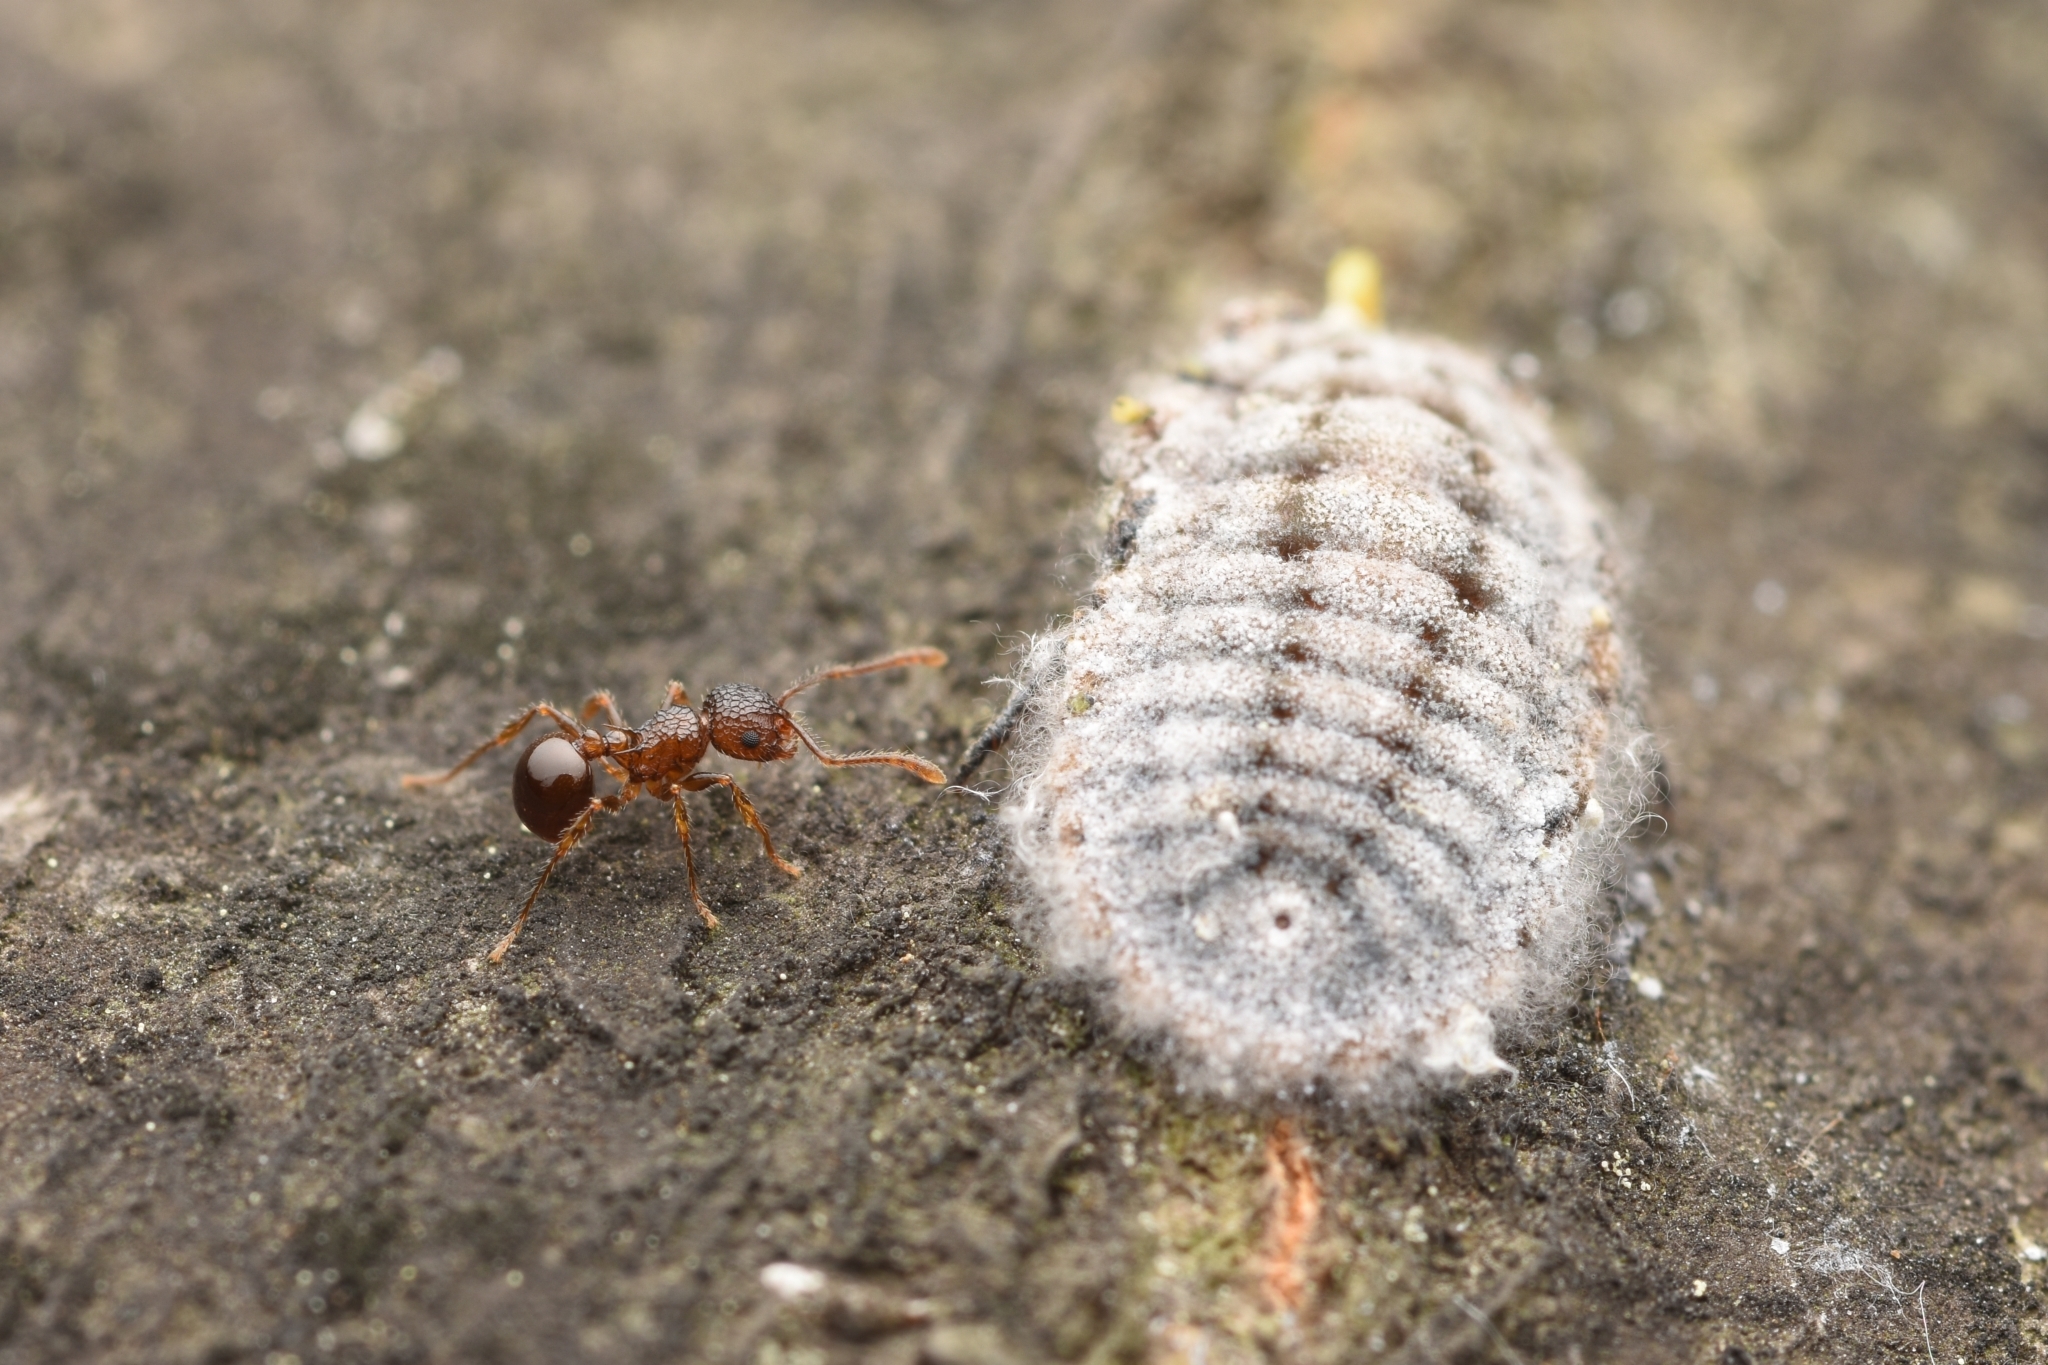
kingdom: Animalia
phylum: Arthropoda
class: Insecta
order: Hymenoptera
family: Formicidae
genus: Pristomyrmex
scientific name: Pristomyrmex punctatus
